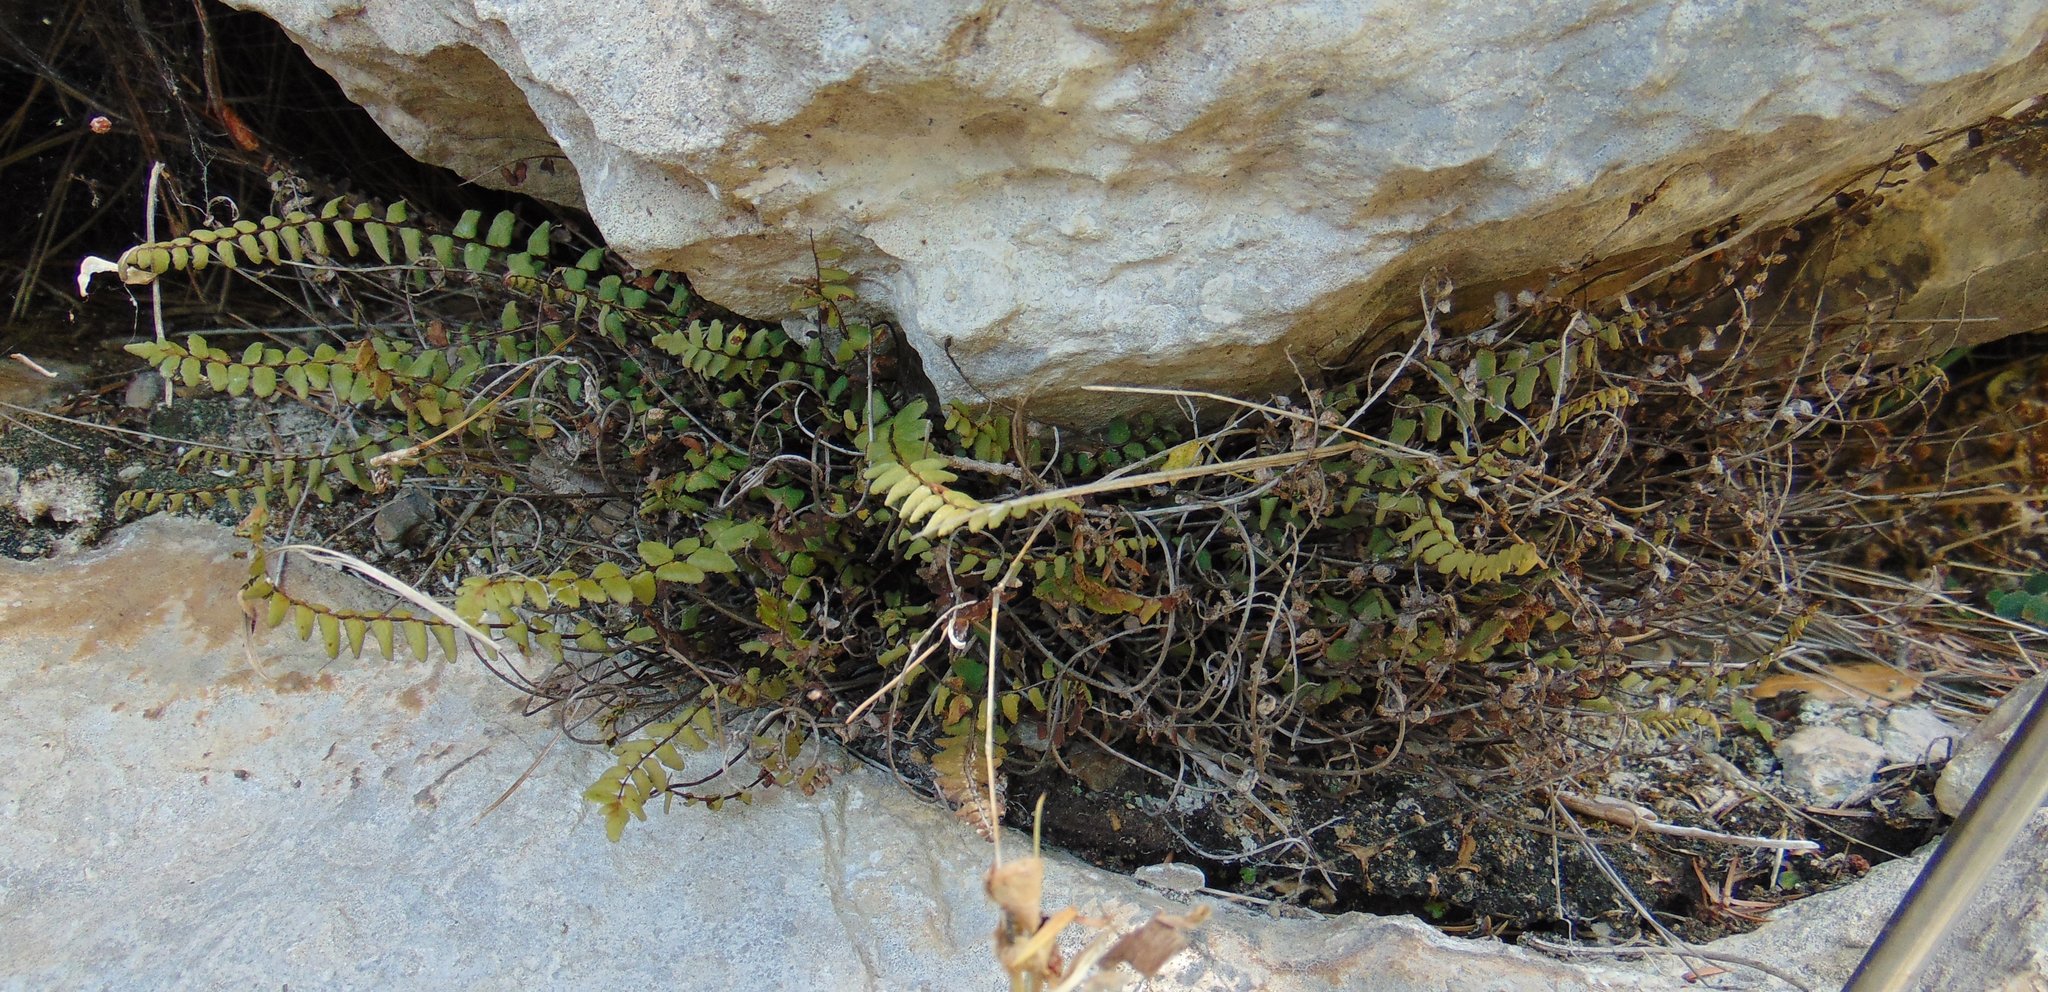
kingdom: Plantae
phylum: Tracheophyta
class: Polypodiopsida
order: Polypodiales
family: Aspleniaceae
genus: Asplenium
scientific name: Asplenium trichomanes
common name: Maidenhair spleenwort
